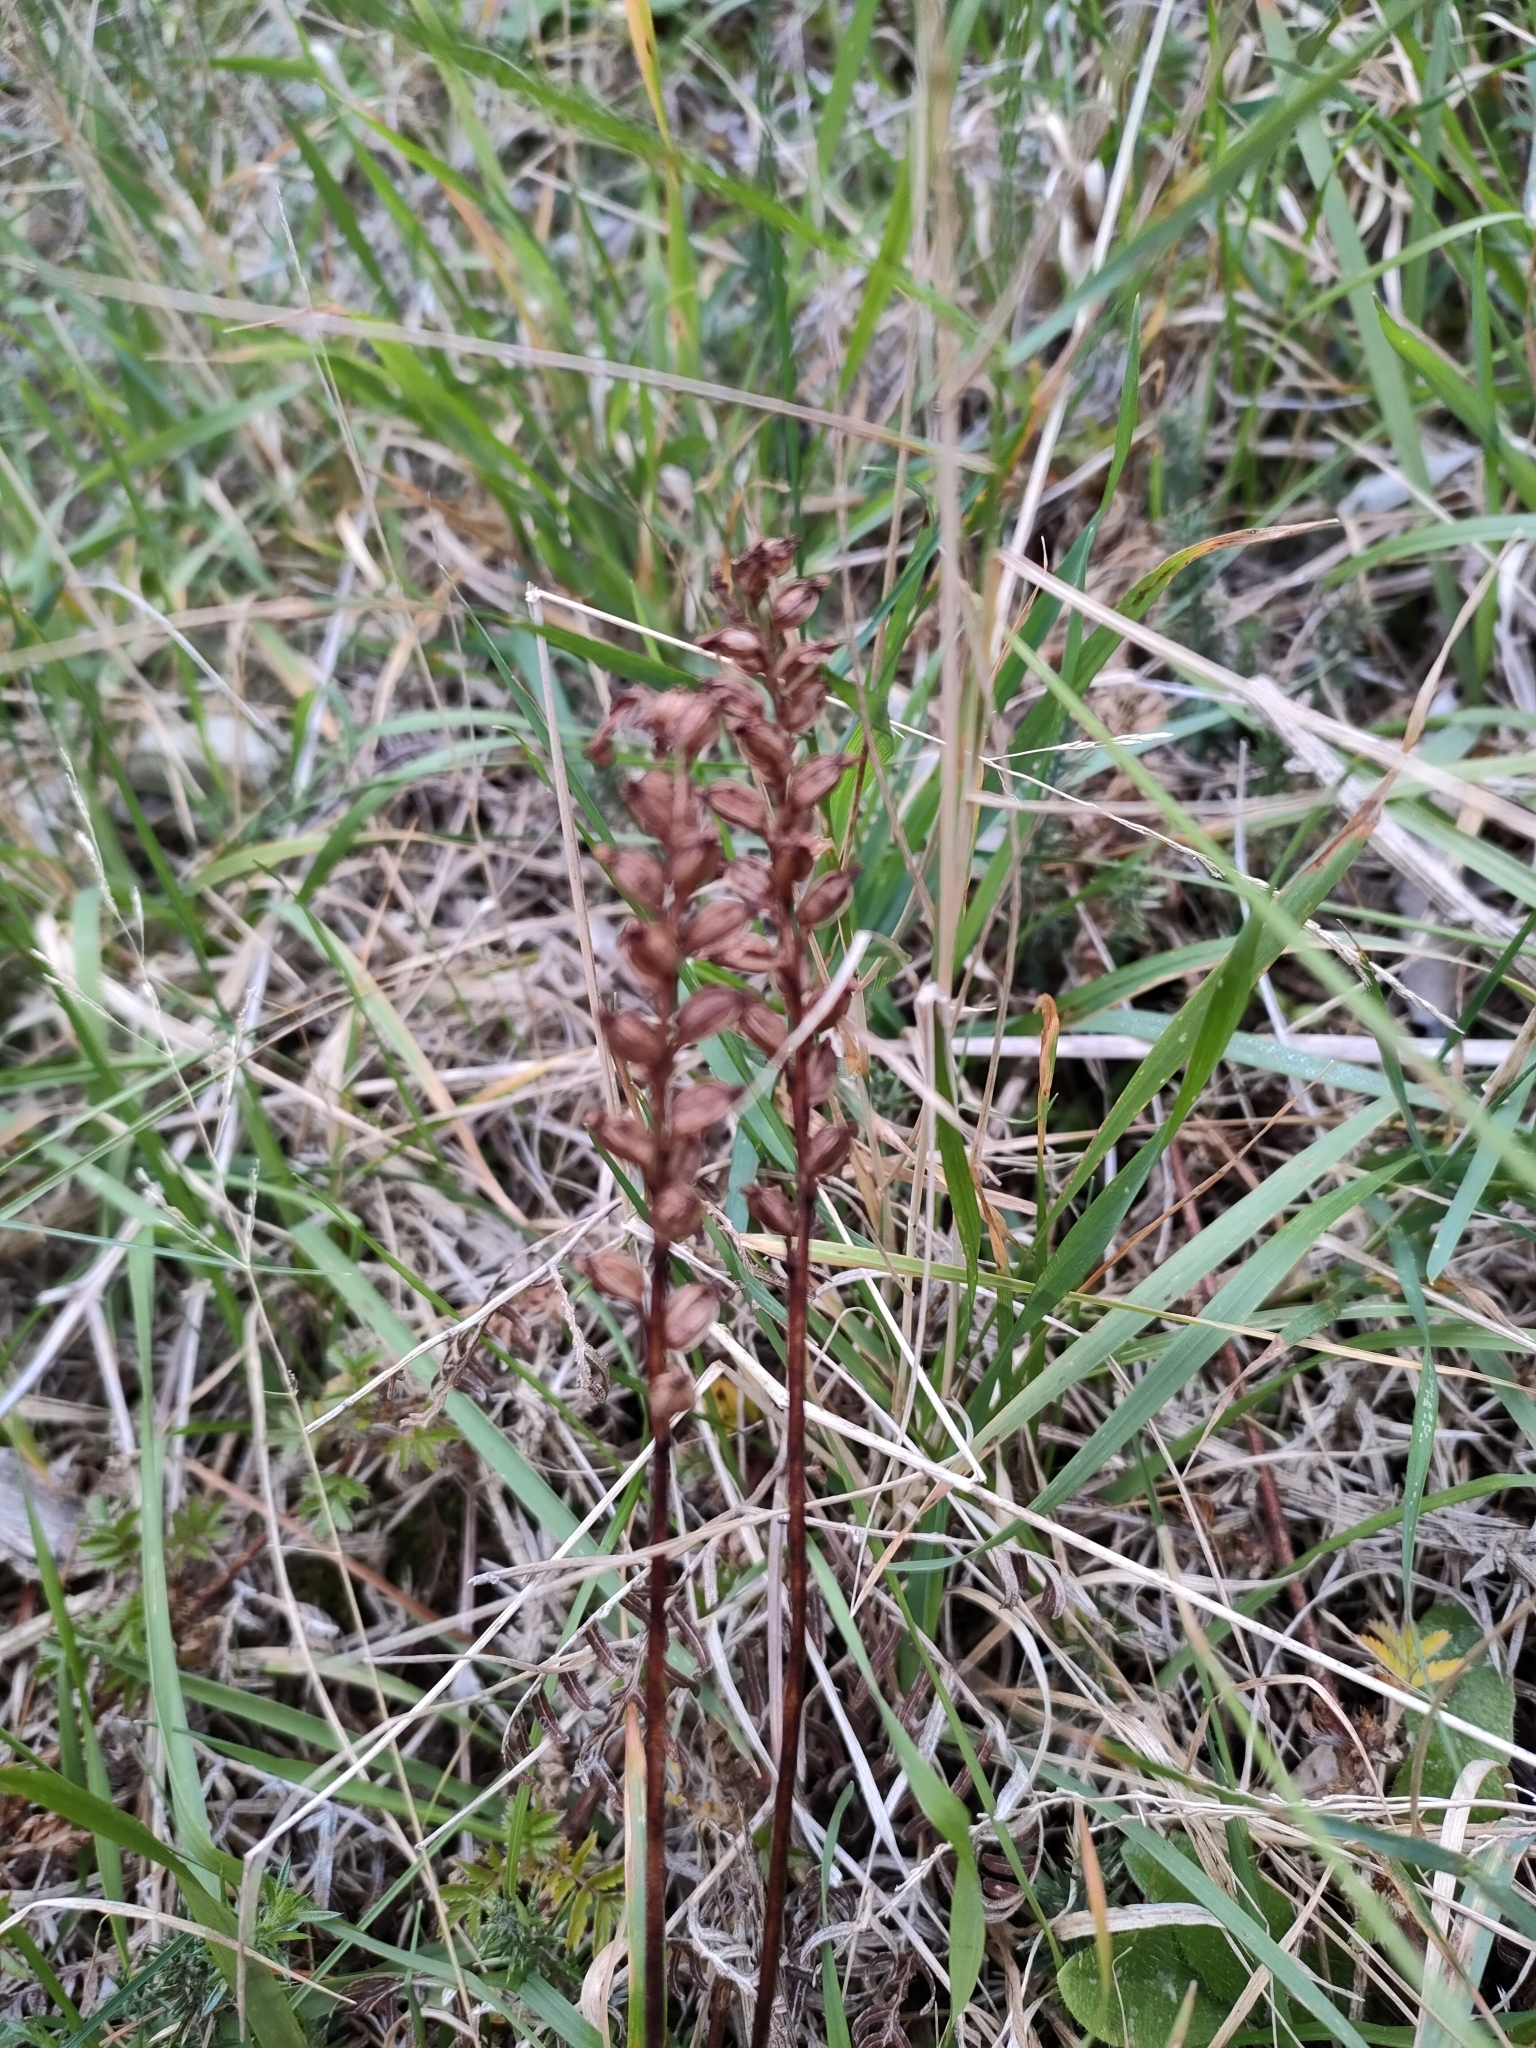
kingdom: Plantae
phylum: Tracheophyta
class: Liliopsida
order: Asparagales
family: Orchidaceae
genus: Microtis
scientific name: Microtis unifolia
